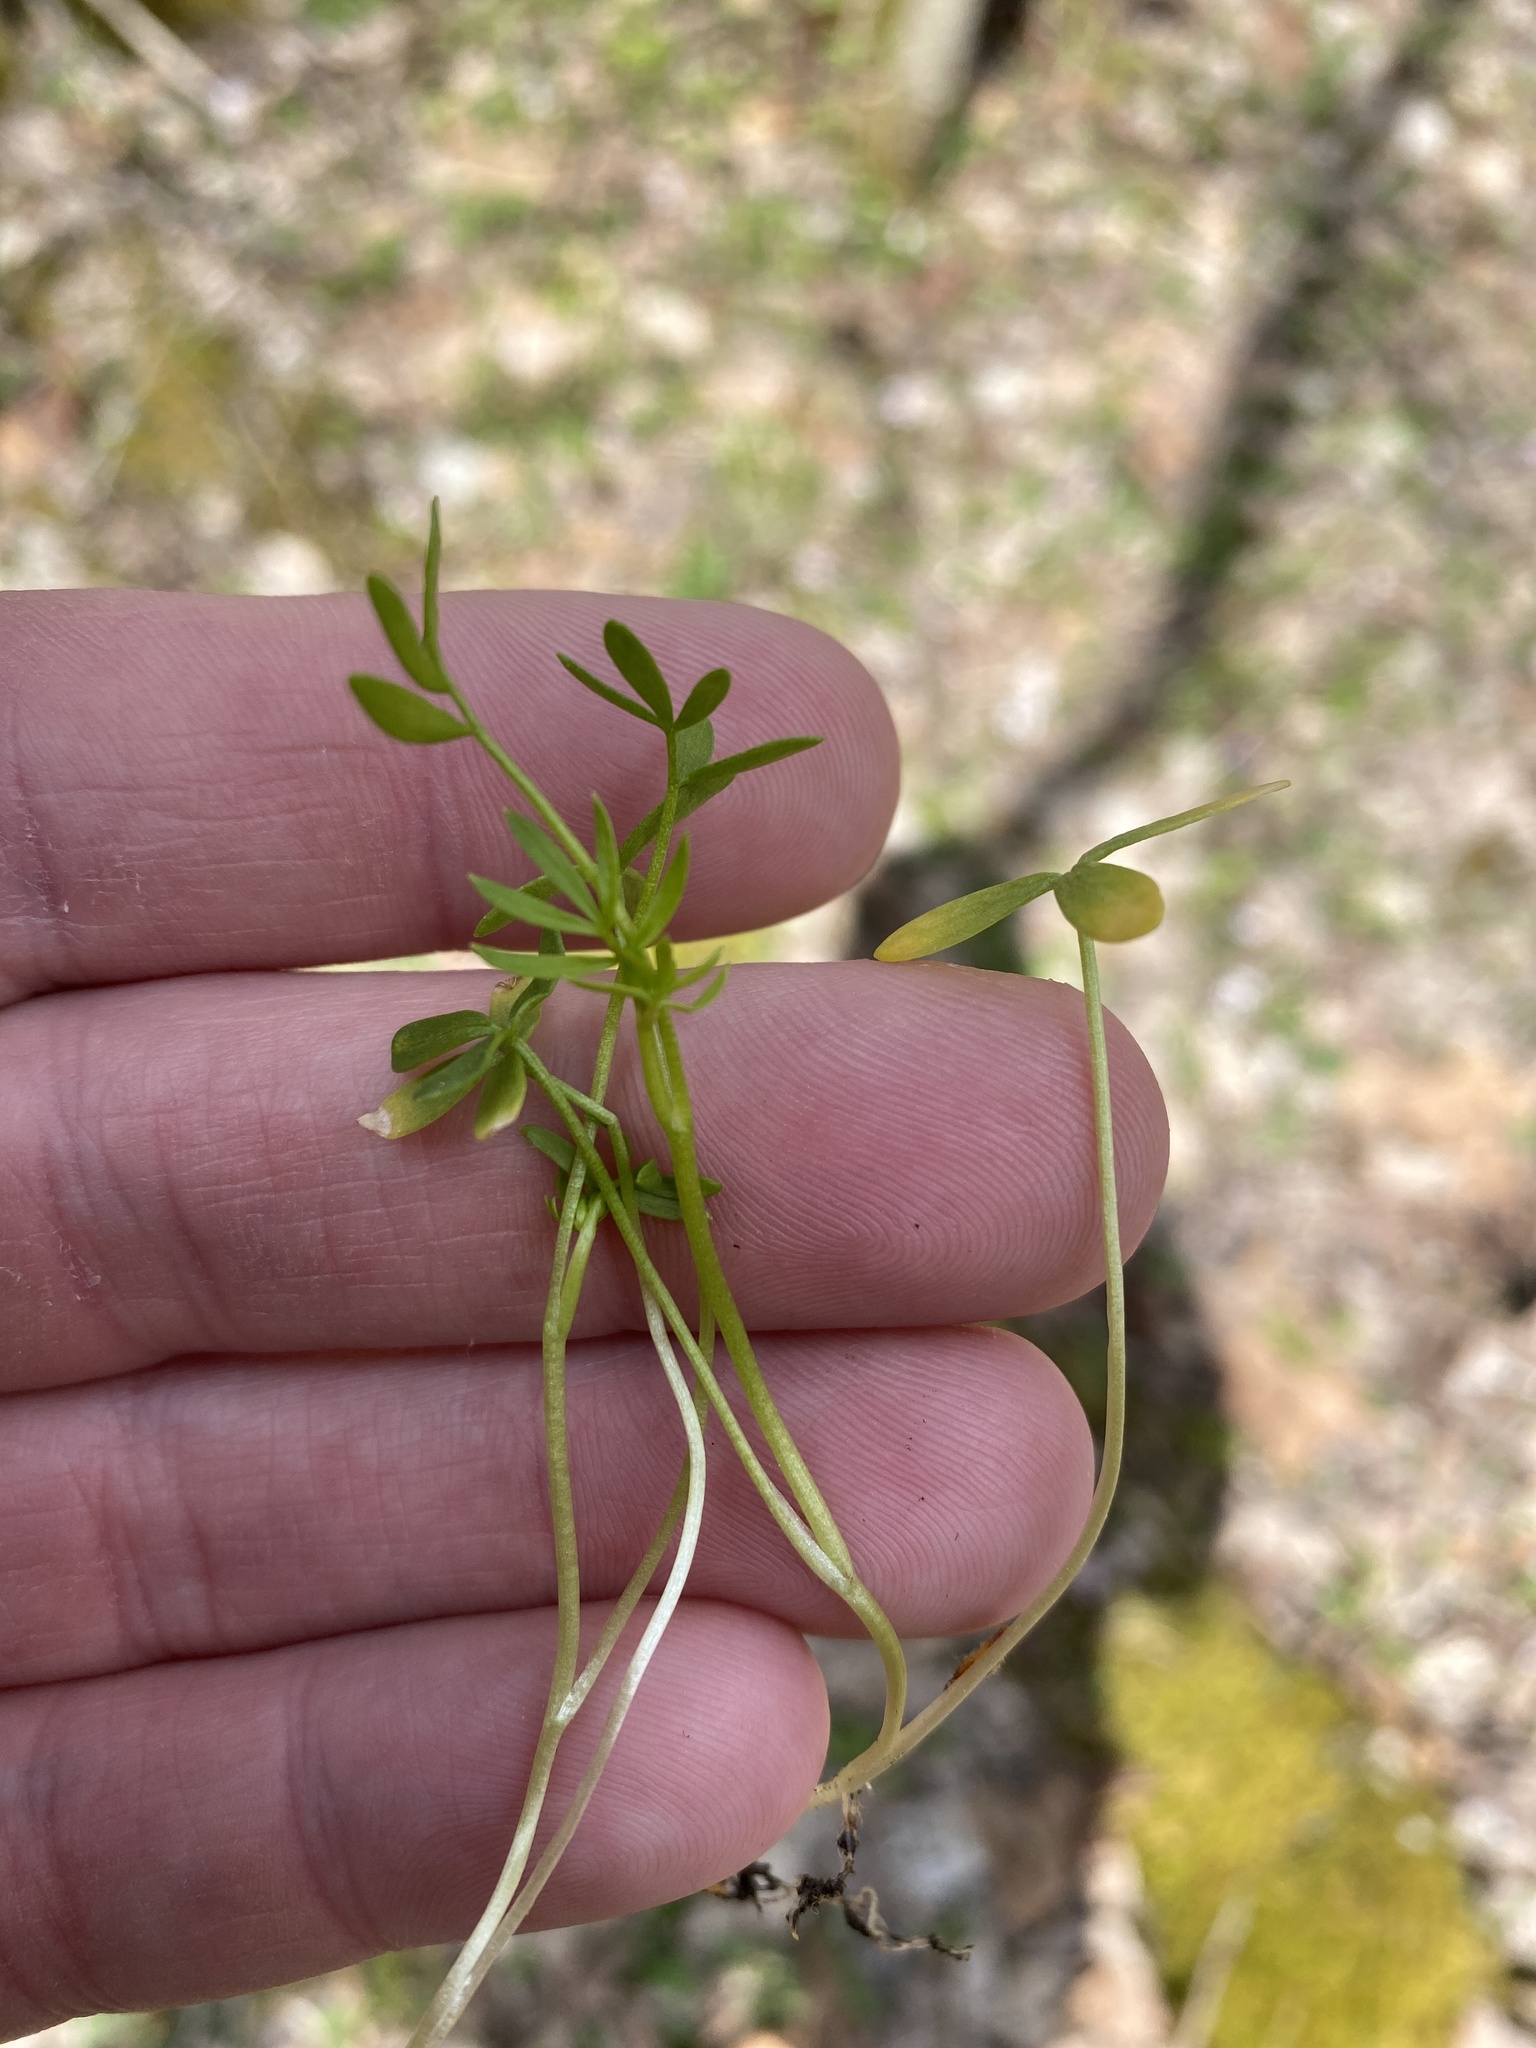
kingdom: Plantae
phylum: Tracheophyta
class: Magnoliopsida
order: Brassicales
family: Limnanthaceae
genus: Floerkea
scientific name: Floerkea proserpinacoides
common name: False mermaid
